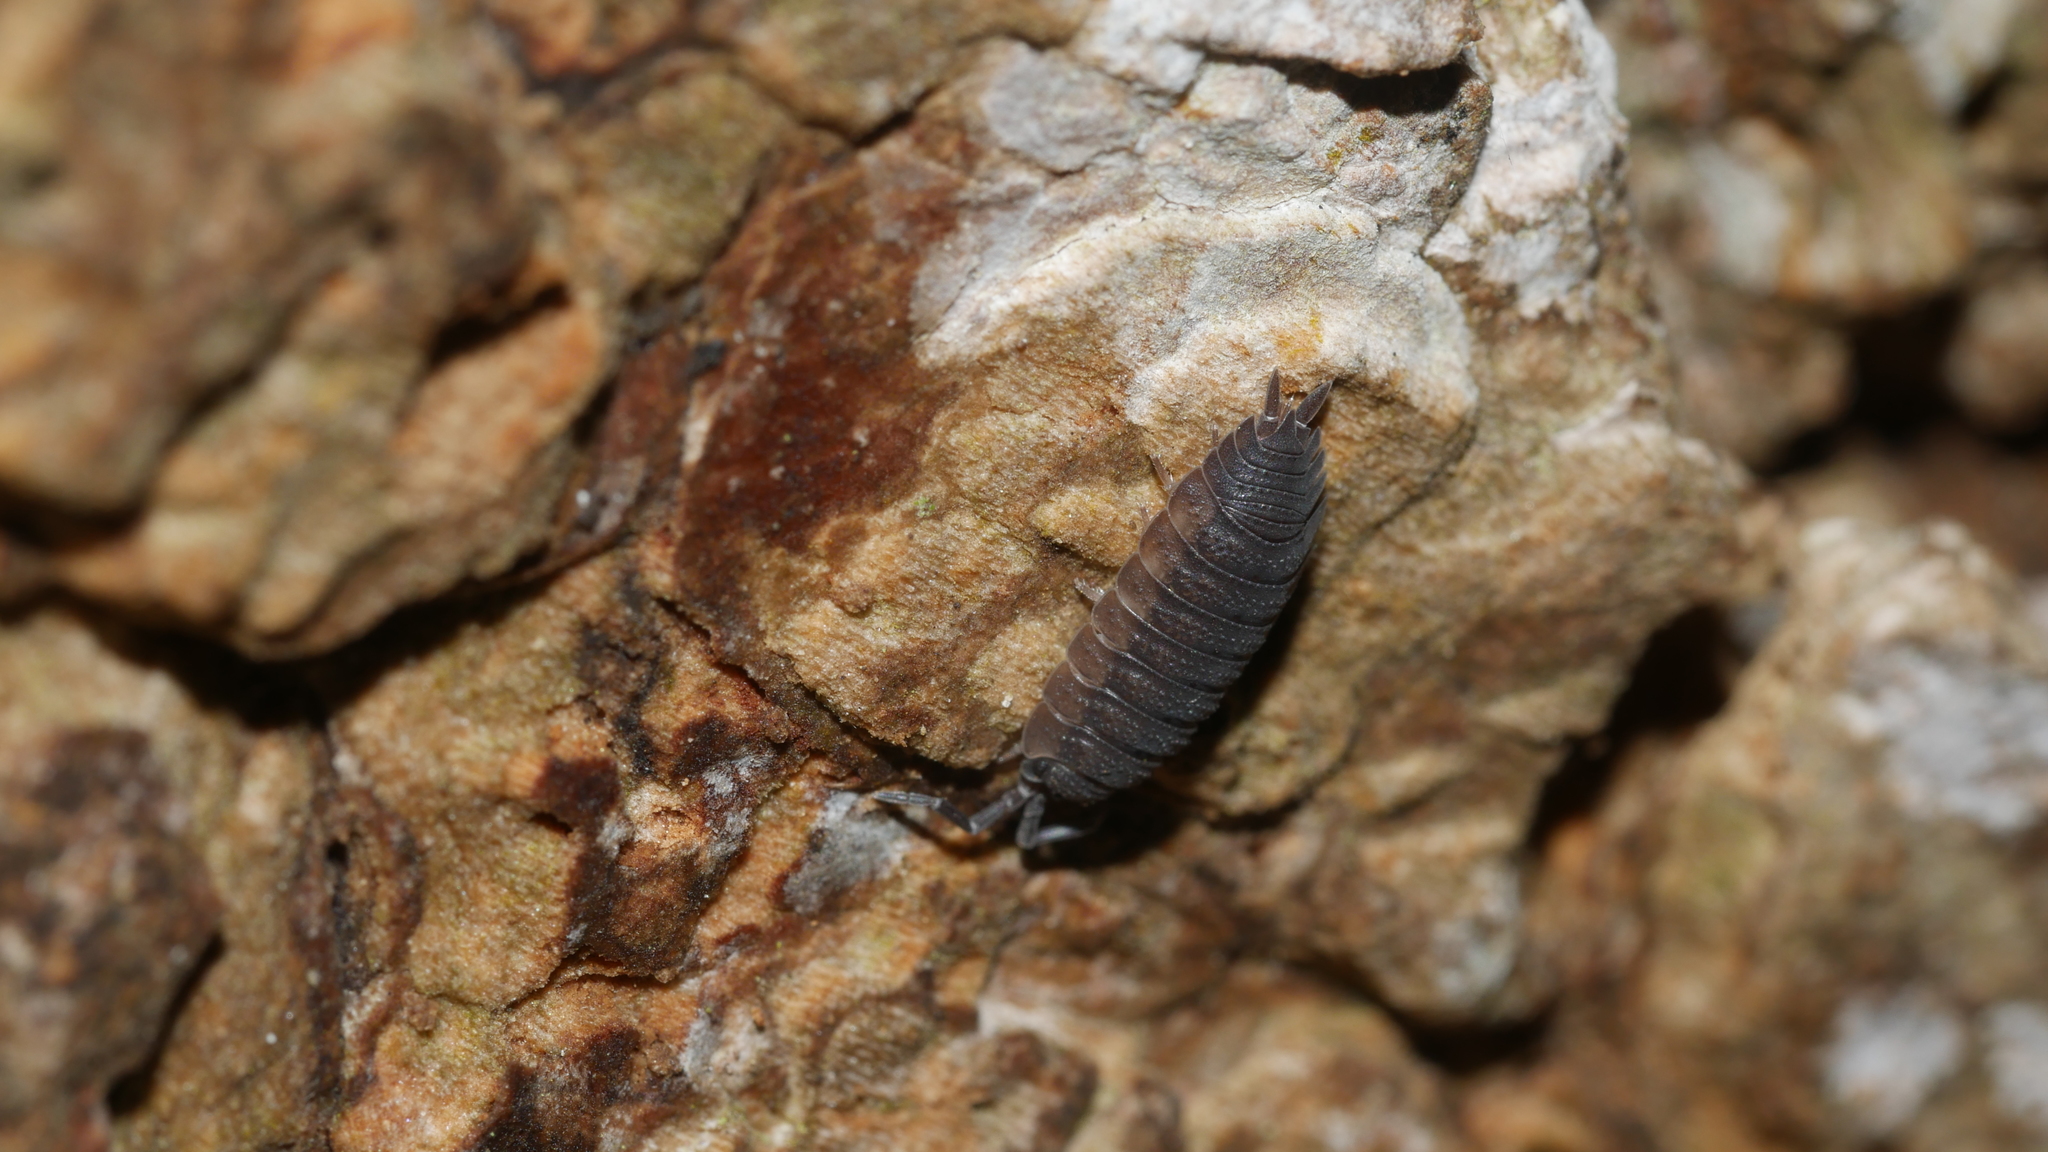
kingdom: Animalia
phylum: Arthropoda
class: Malacostraca
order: Isopoda
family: Porcellionidae
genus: Porcellio
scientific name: Porcellio scaber
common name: Common rough woodlouse
